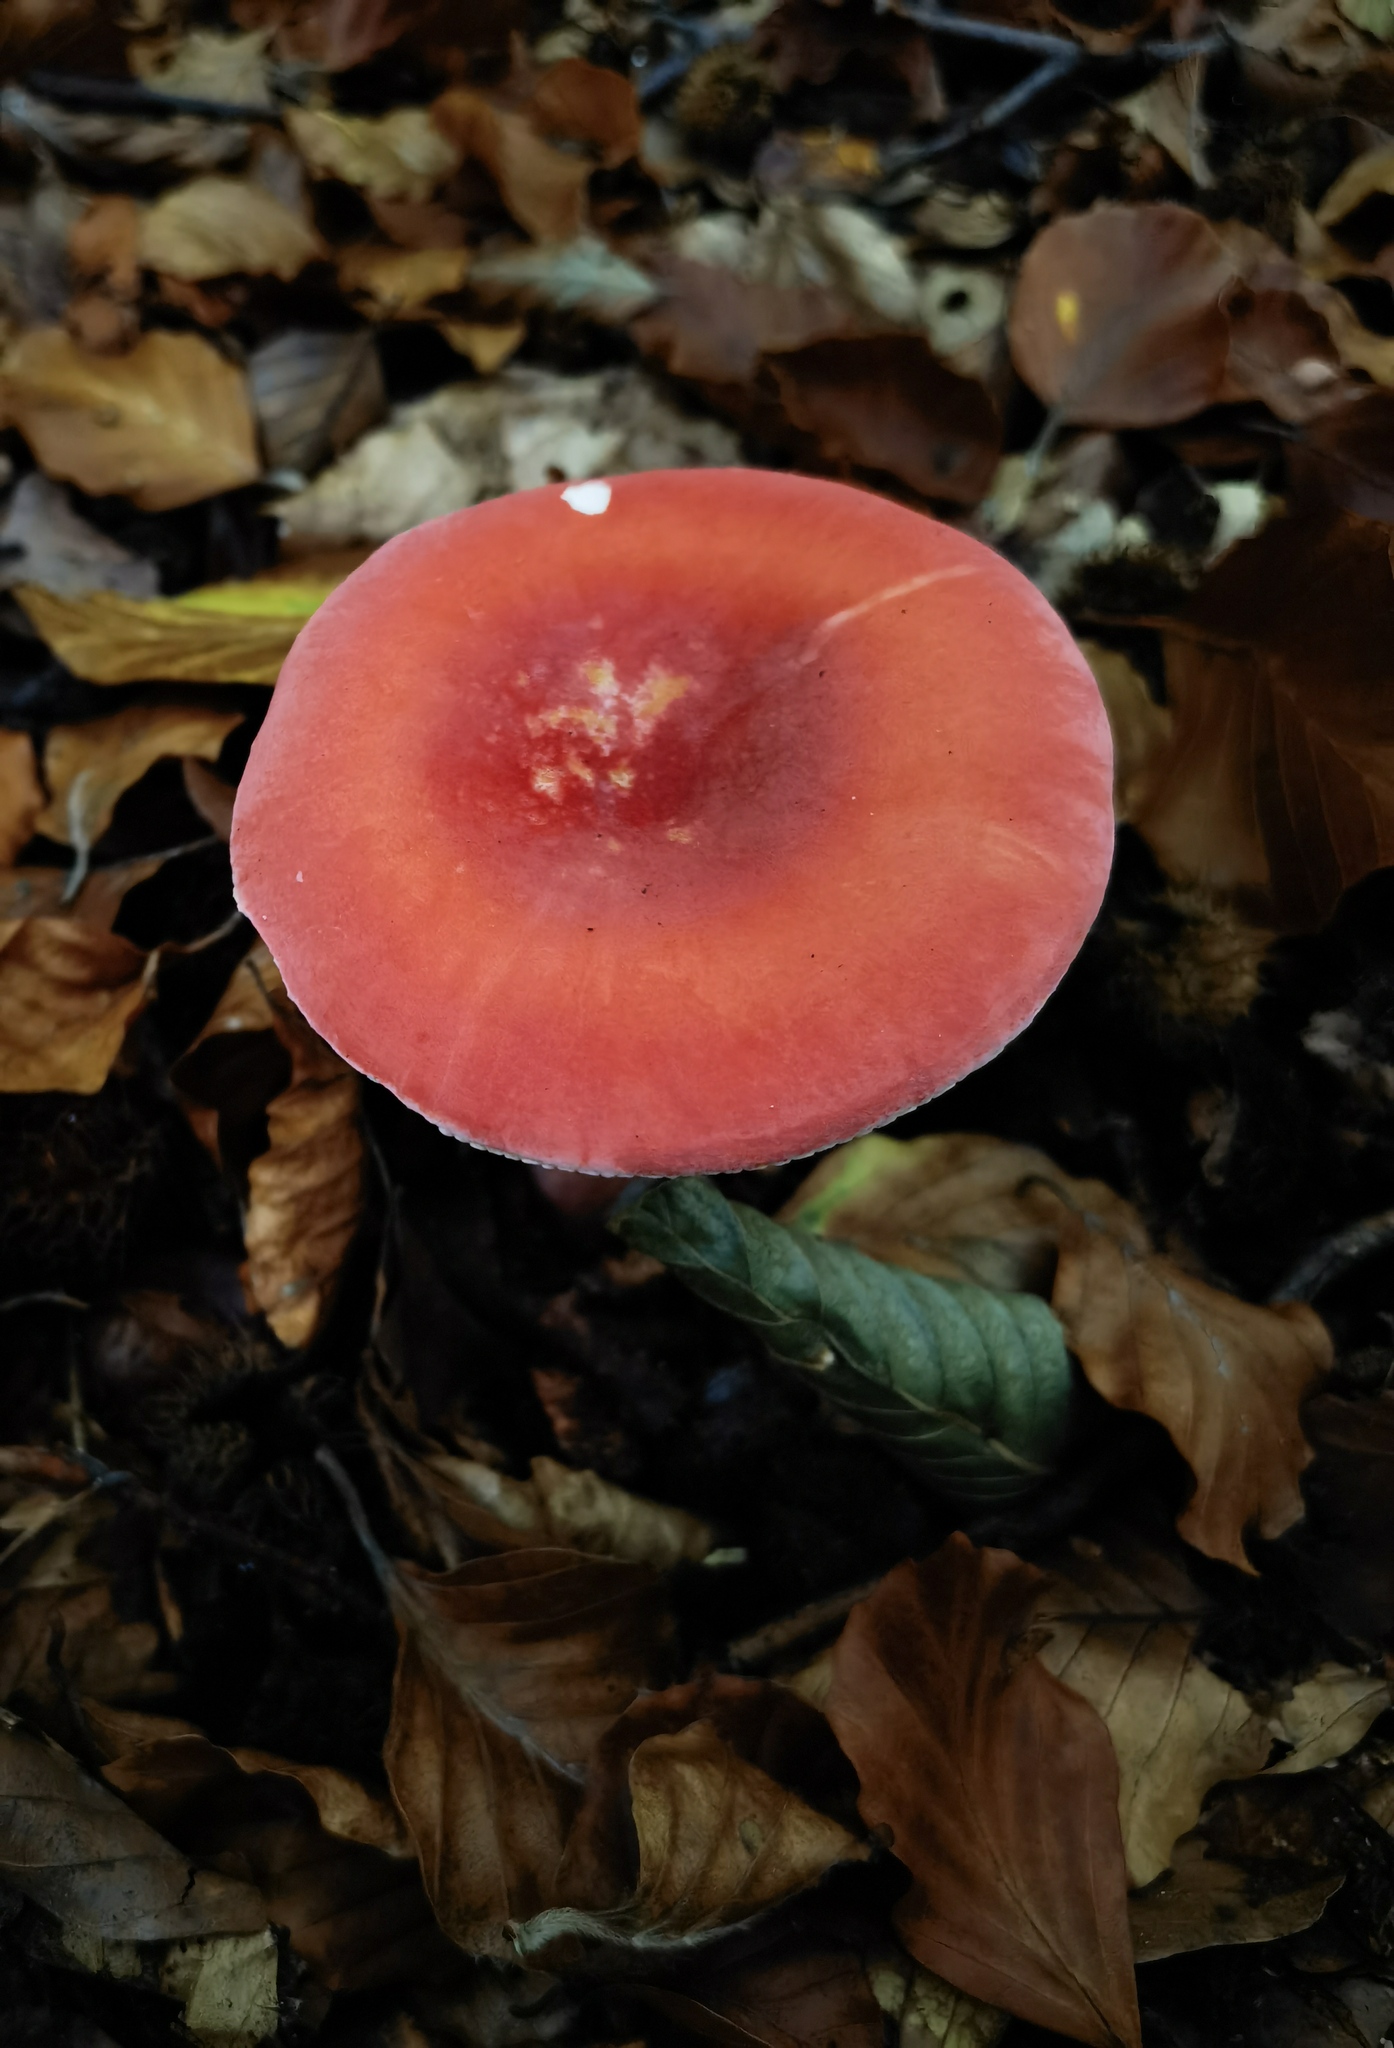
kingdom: Fungi
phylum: Basidiomycota
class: Agaricomycetes
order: Russulales
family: Russulaceae
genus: Russula
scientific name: Russula sanguinea
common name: Bloody brittlegill
